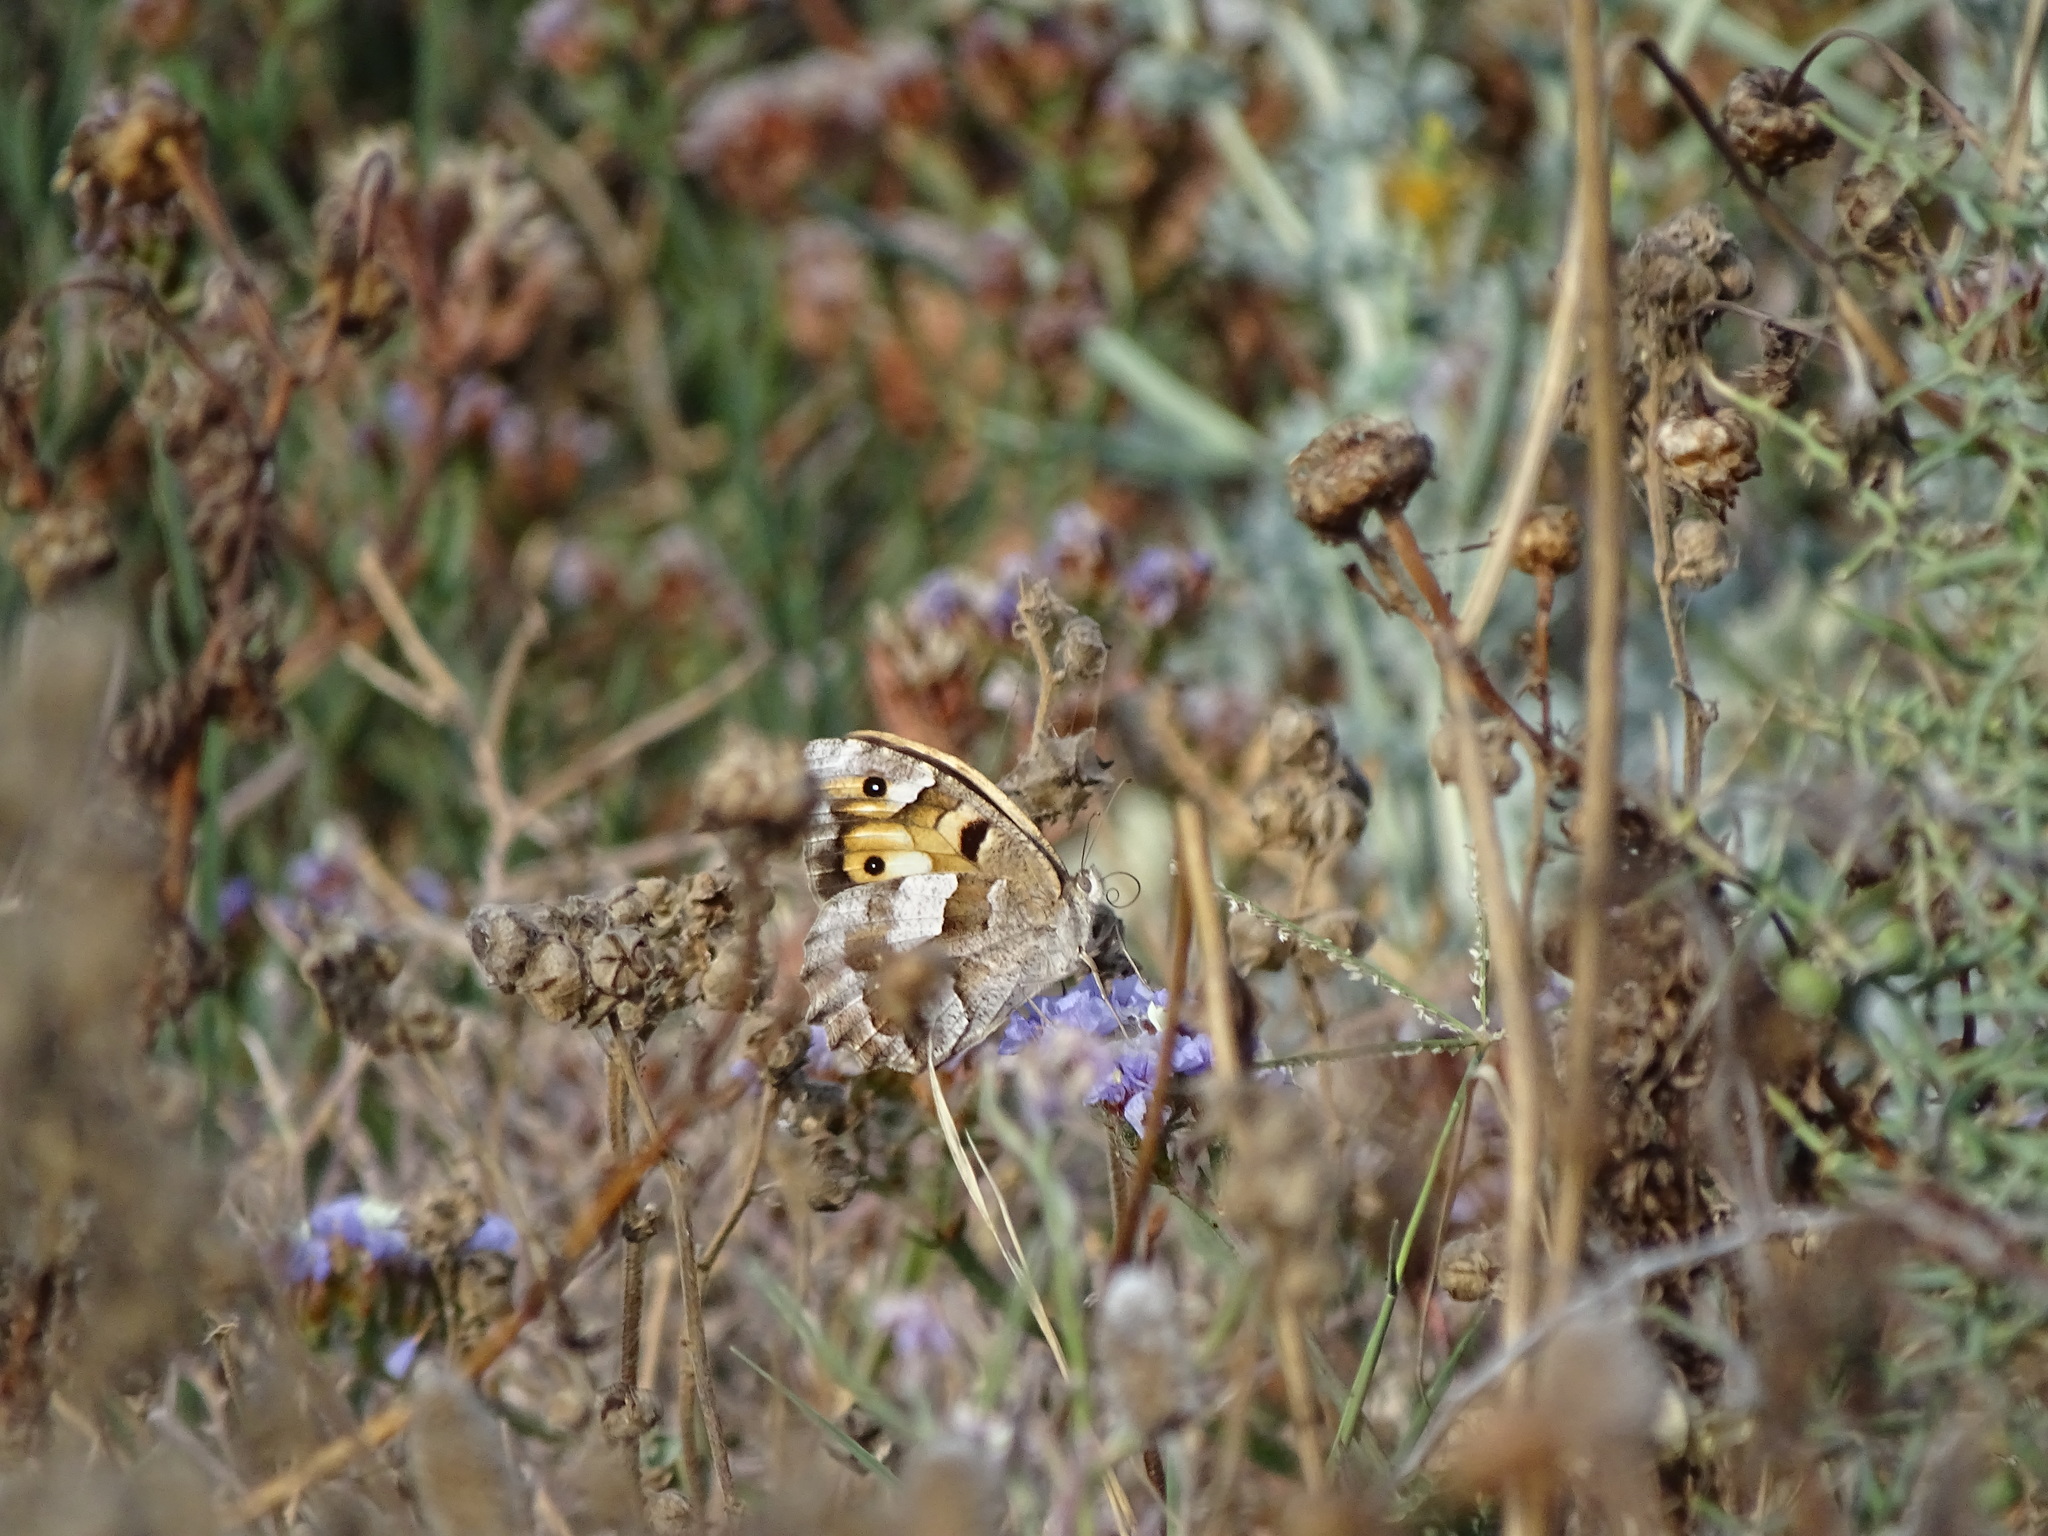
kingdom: Animalia
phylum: Arthropoda
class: Insecta
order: Lepidoptera
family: Nymphalidae
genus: Satyrus
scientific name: Satyrus briseis
